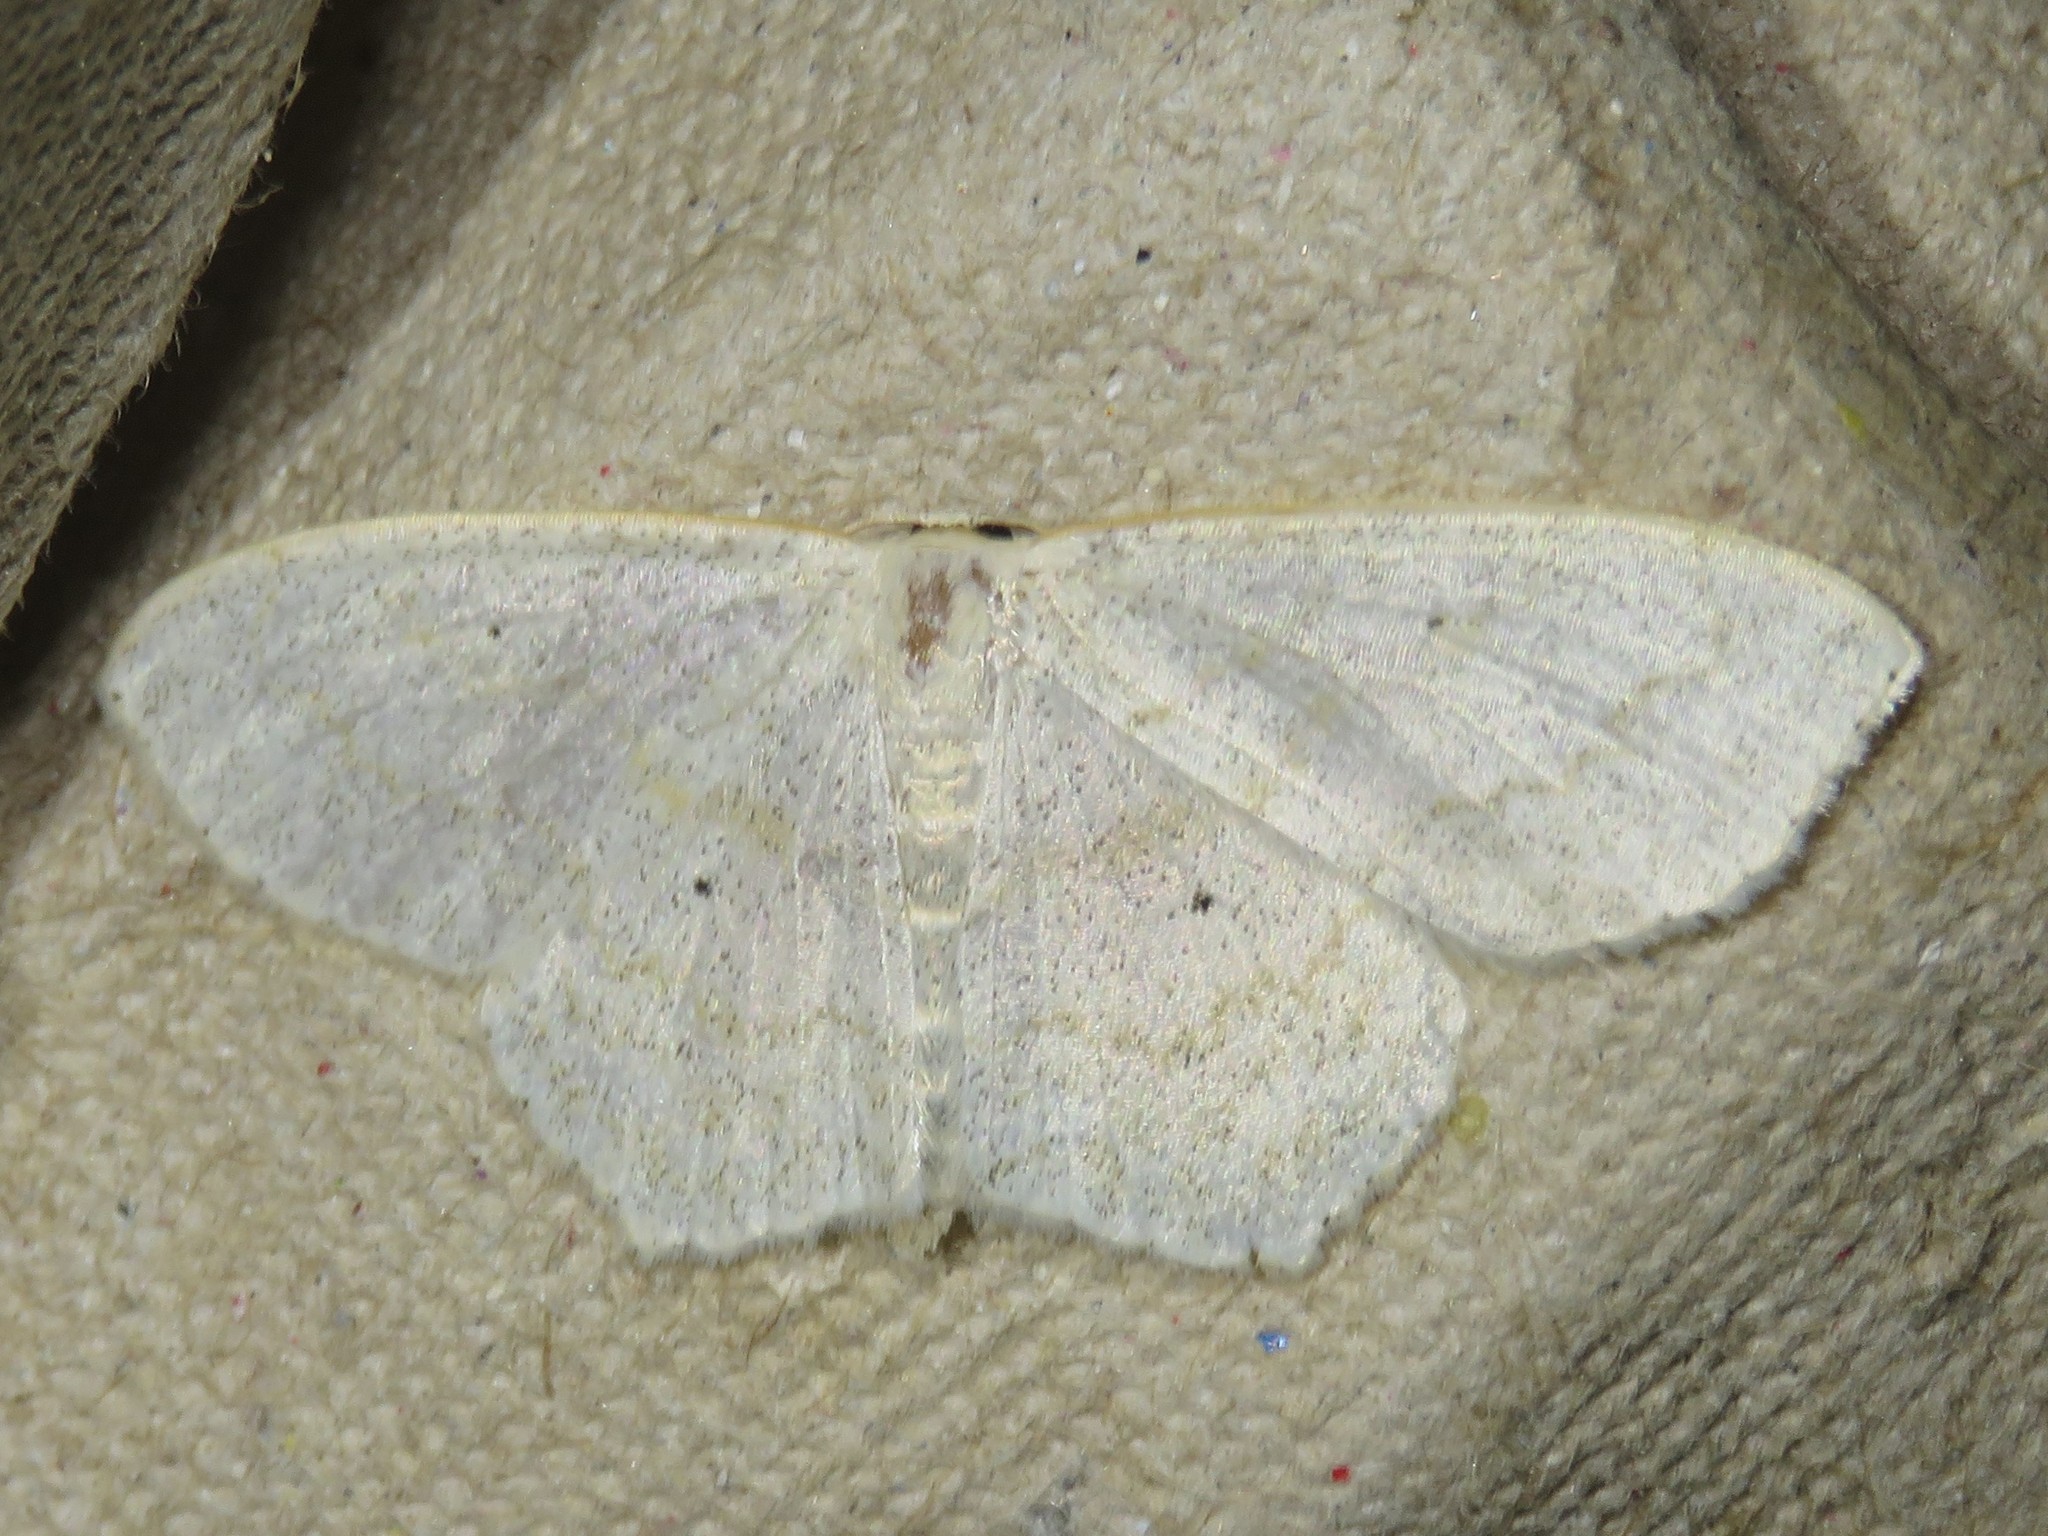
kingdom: Animalia
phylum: Arthropoda
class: Insecta
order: Lepidoptera
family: Geometridae
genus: Scopula
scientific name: Scopula limboundata
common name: Large lace border
